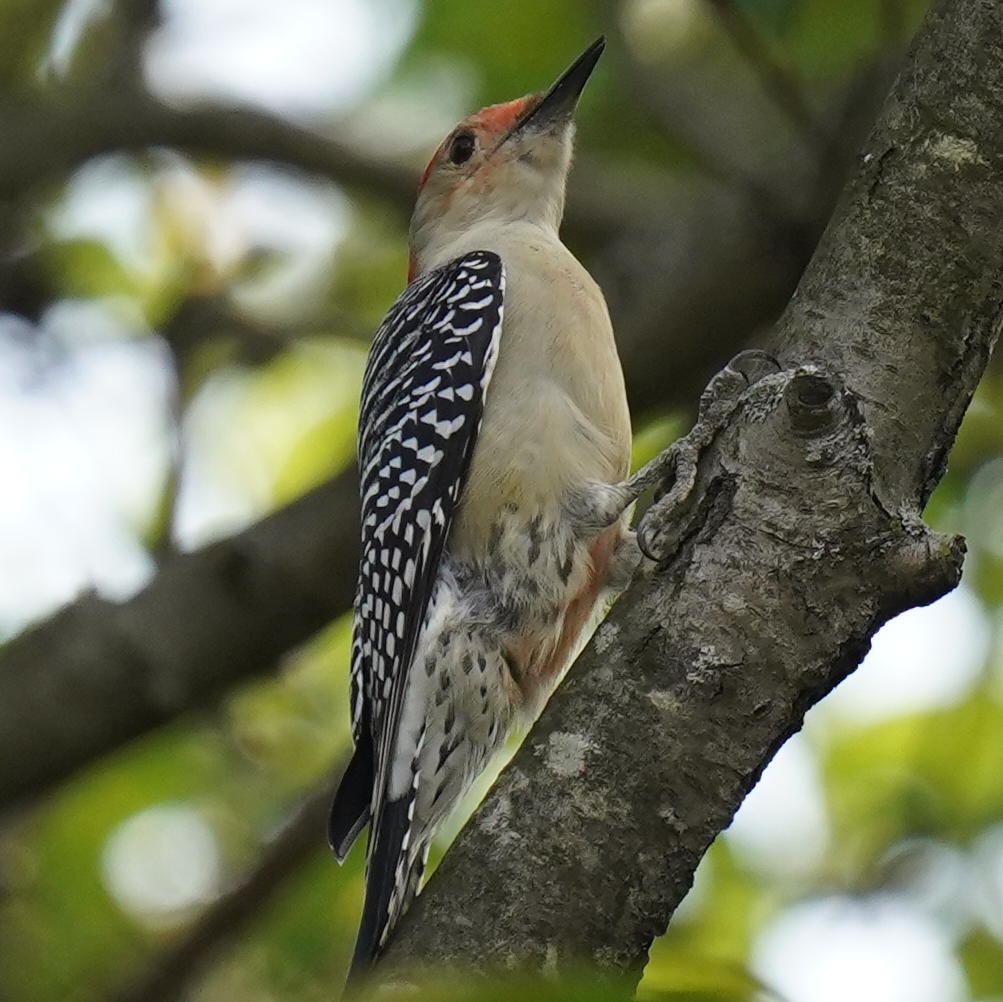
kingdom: Animalia
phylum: Chordata
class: Aves
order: Piciformes
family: Picidae
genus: Melanerpes
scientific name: Melanerpes carolinus
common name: Red-bellied woodpecker
